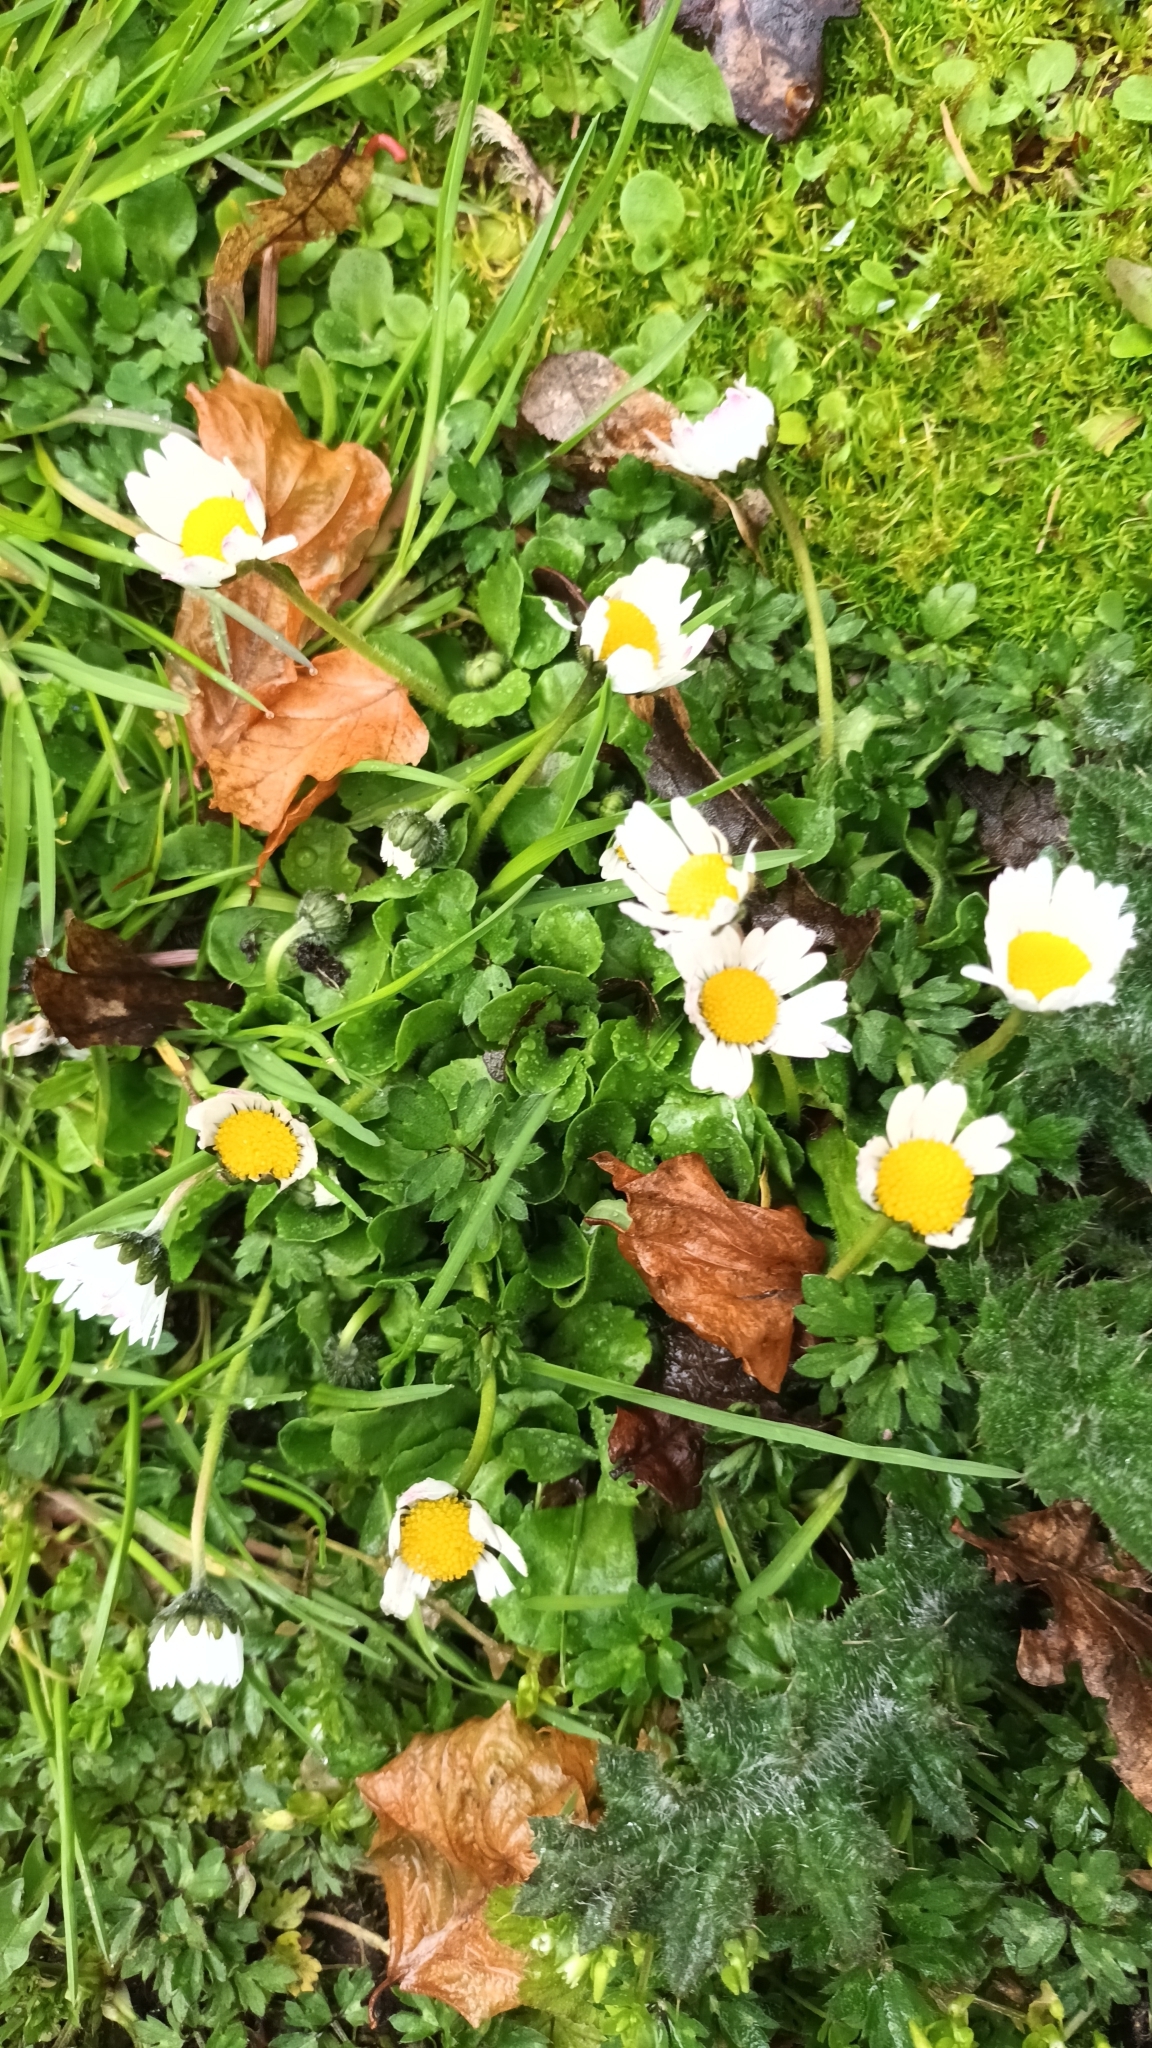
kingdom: Plantae
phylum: Tracheophyta
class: Magnoliopsida
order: Asterales
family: Asteraceae
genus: Bellis
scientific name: Bellis perennis
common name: Lawndaisy
